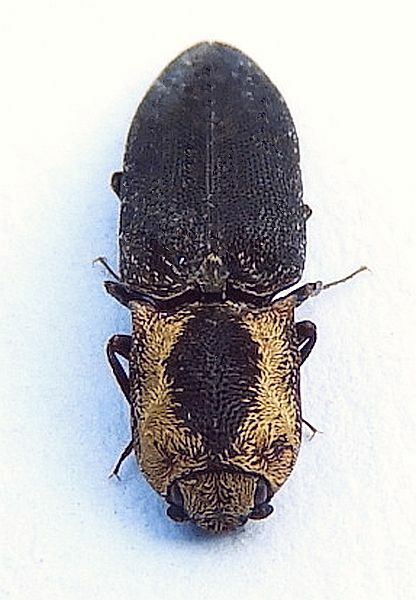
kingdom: Animalia
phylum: Arthropoda
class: Insecta
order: Coleoptera
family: Elateridae
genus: Lacon
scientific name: Lacon discoideus
